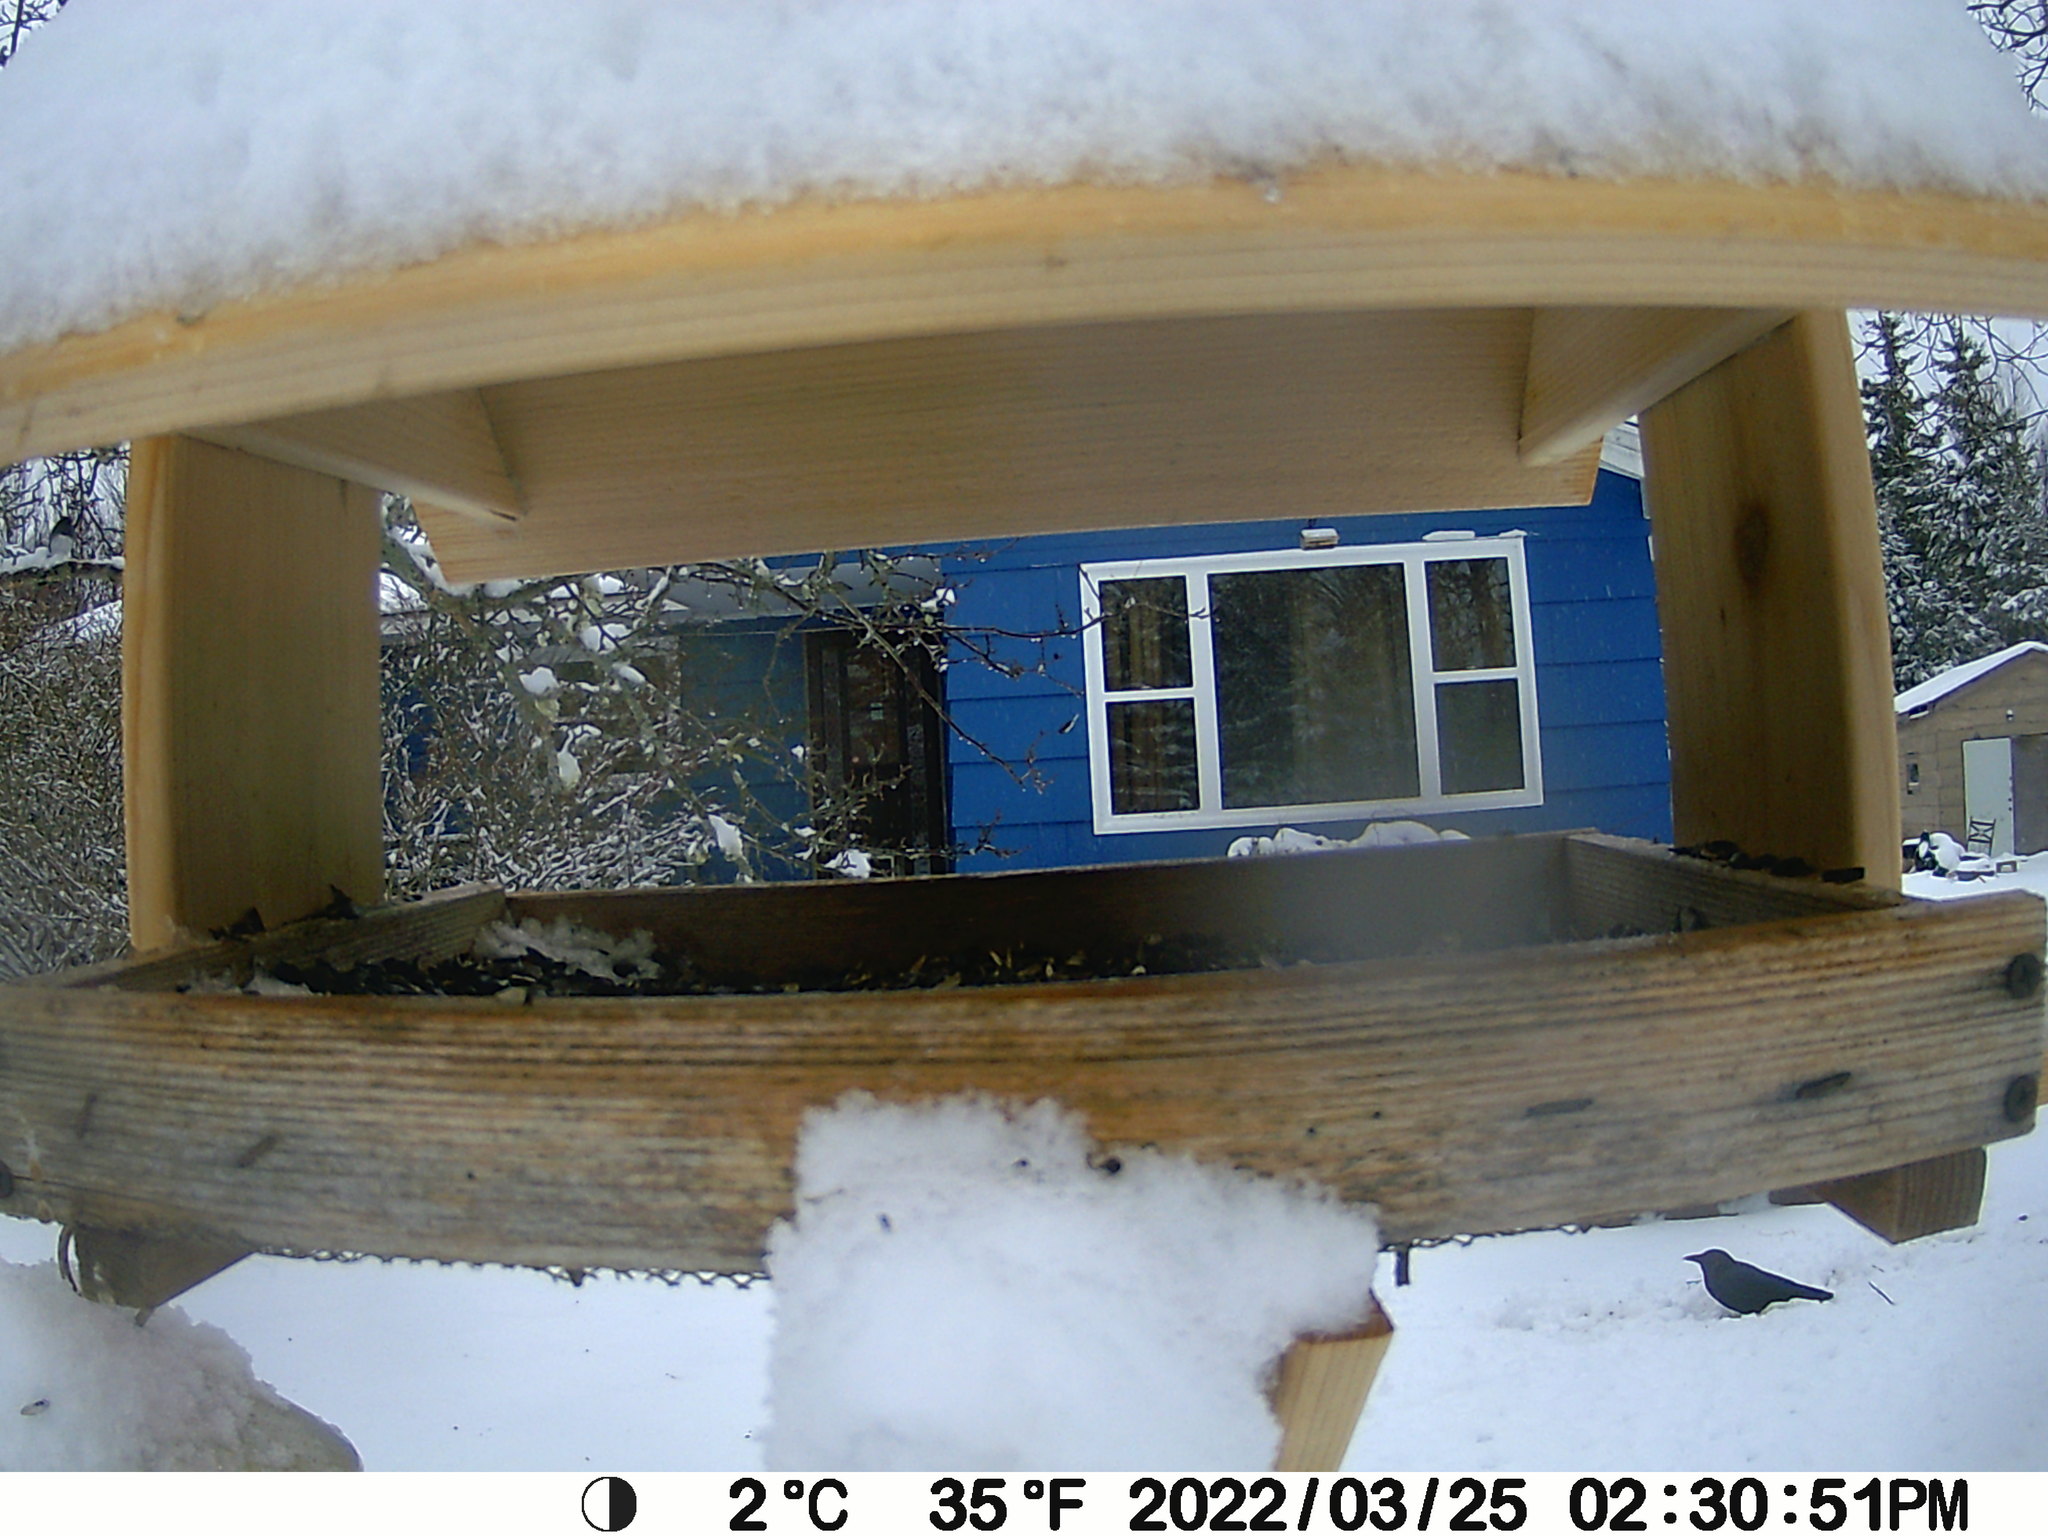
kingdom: Animalia
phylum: Chordata
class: Aves
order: Passeriformes
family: Corvidae
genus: Corvus
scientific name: Corvus brachyrhynchos
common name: American crow
